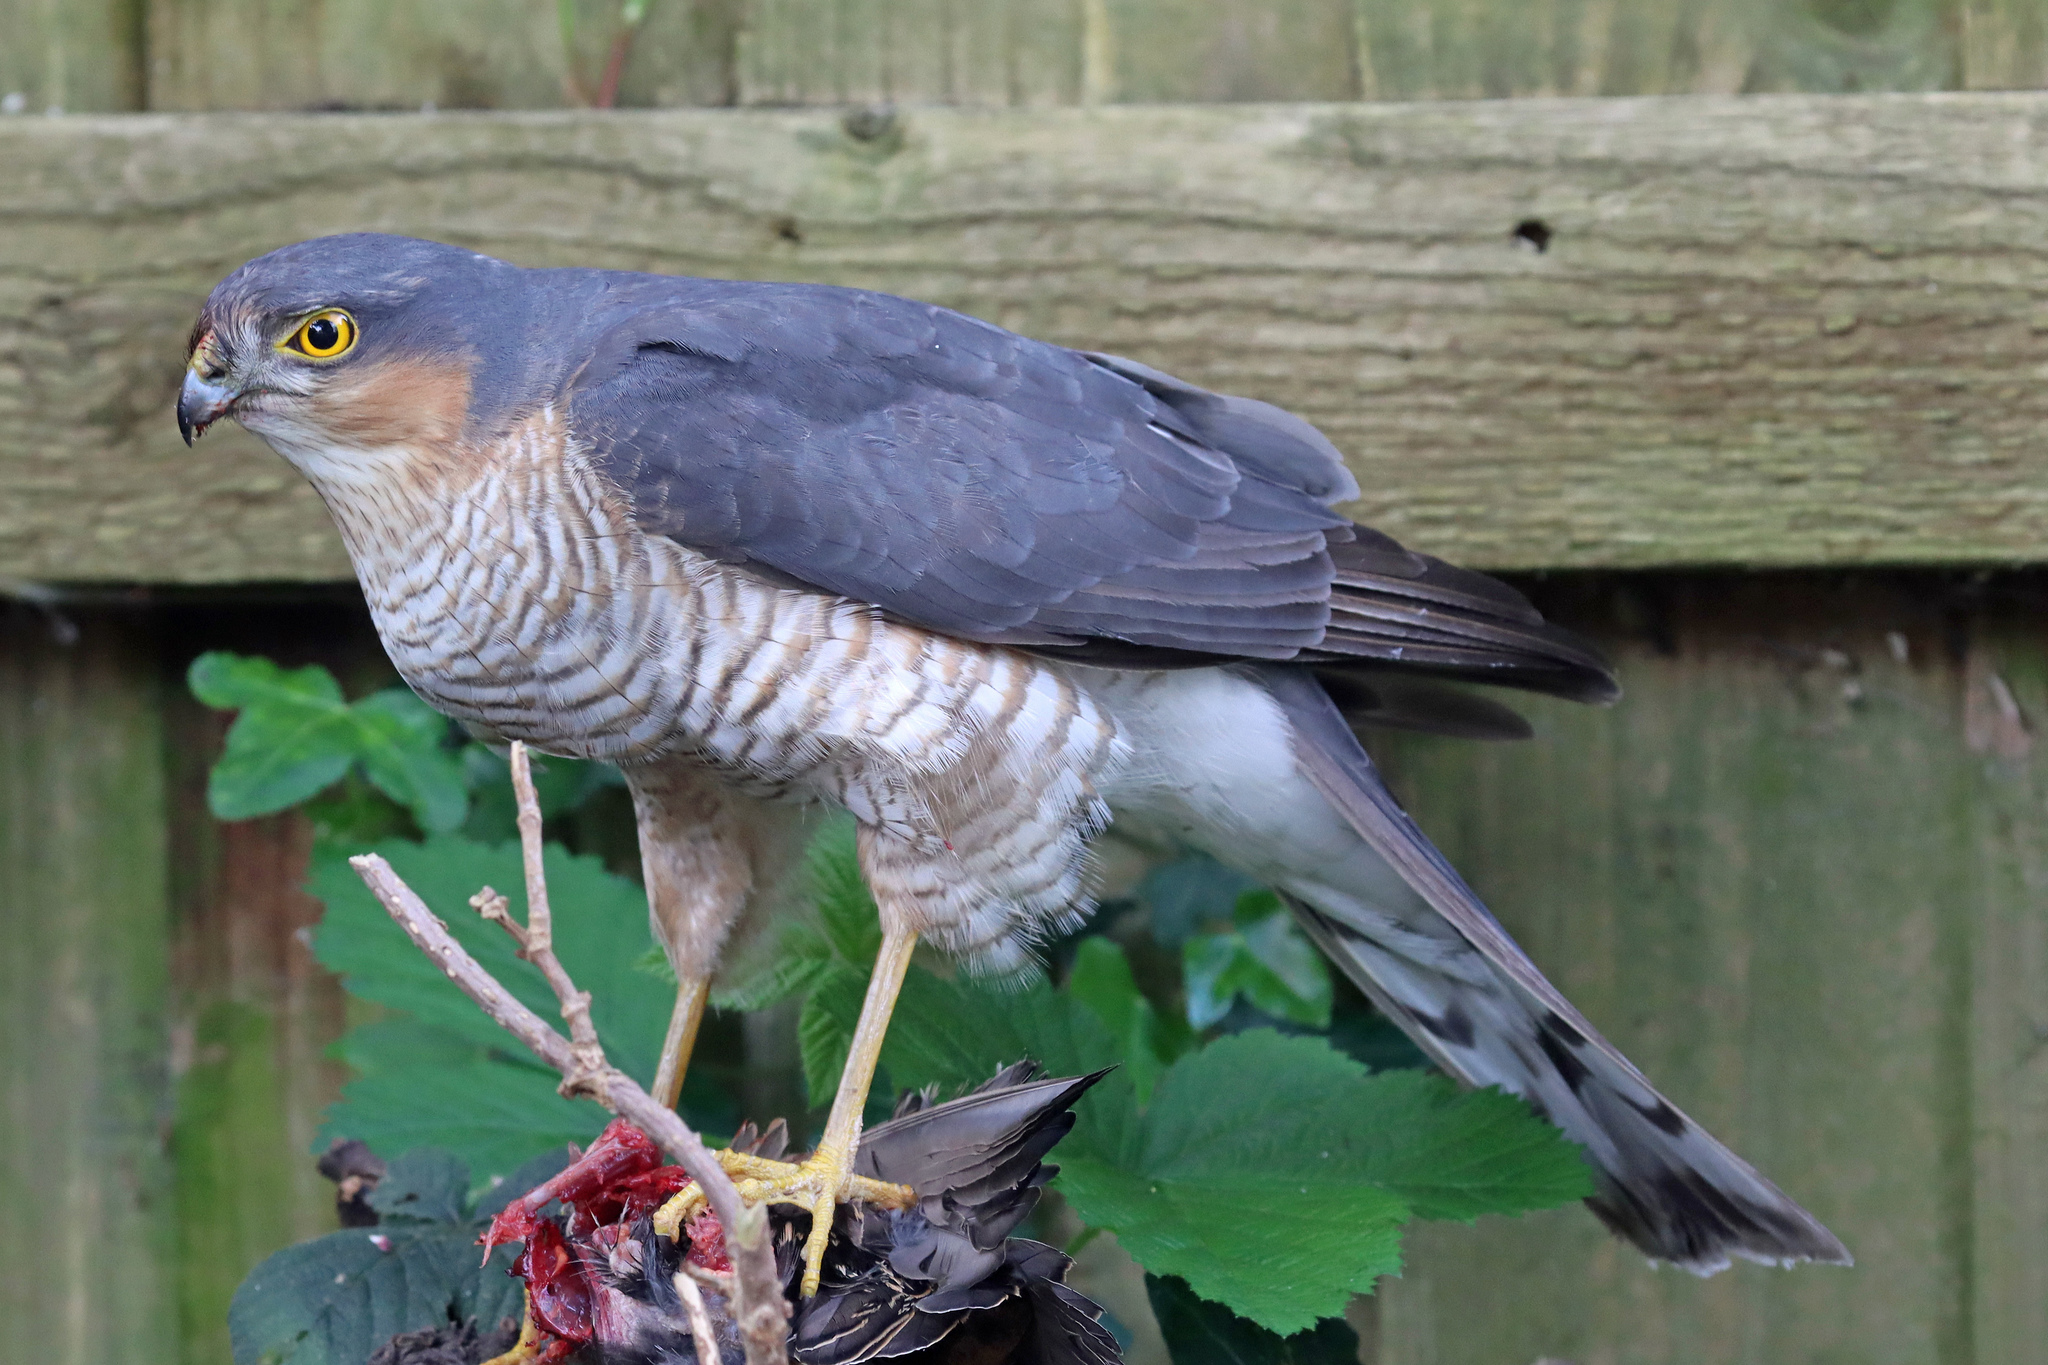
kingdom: Animalia
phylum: Chordata
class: Aves
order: Accipitriformes
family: Accipitridae
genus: Accipiter
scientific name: Accipiter nisus
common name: Eurasian sparrowhawk
